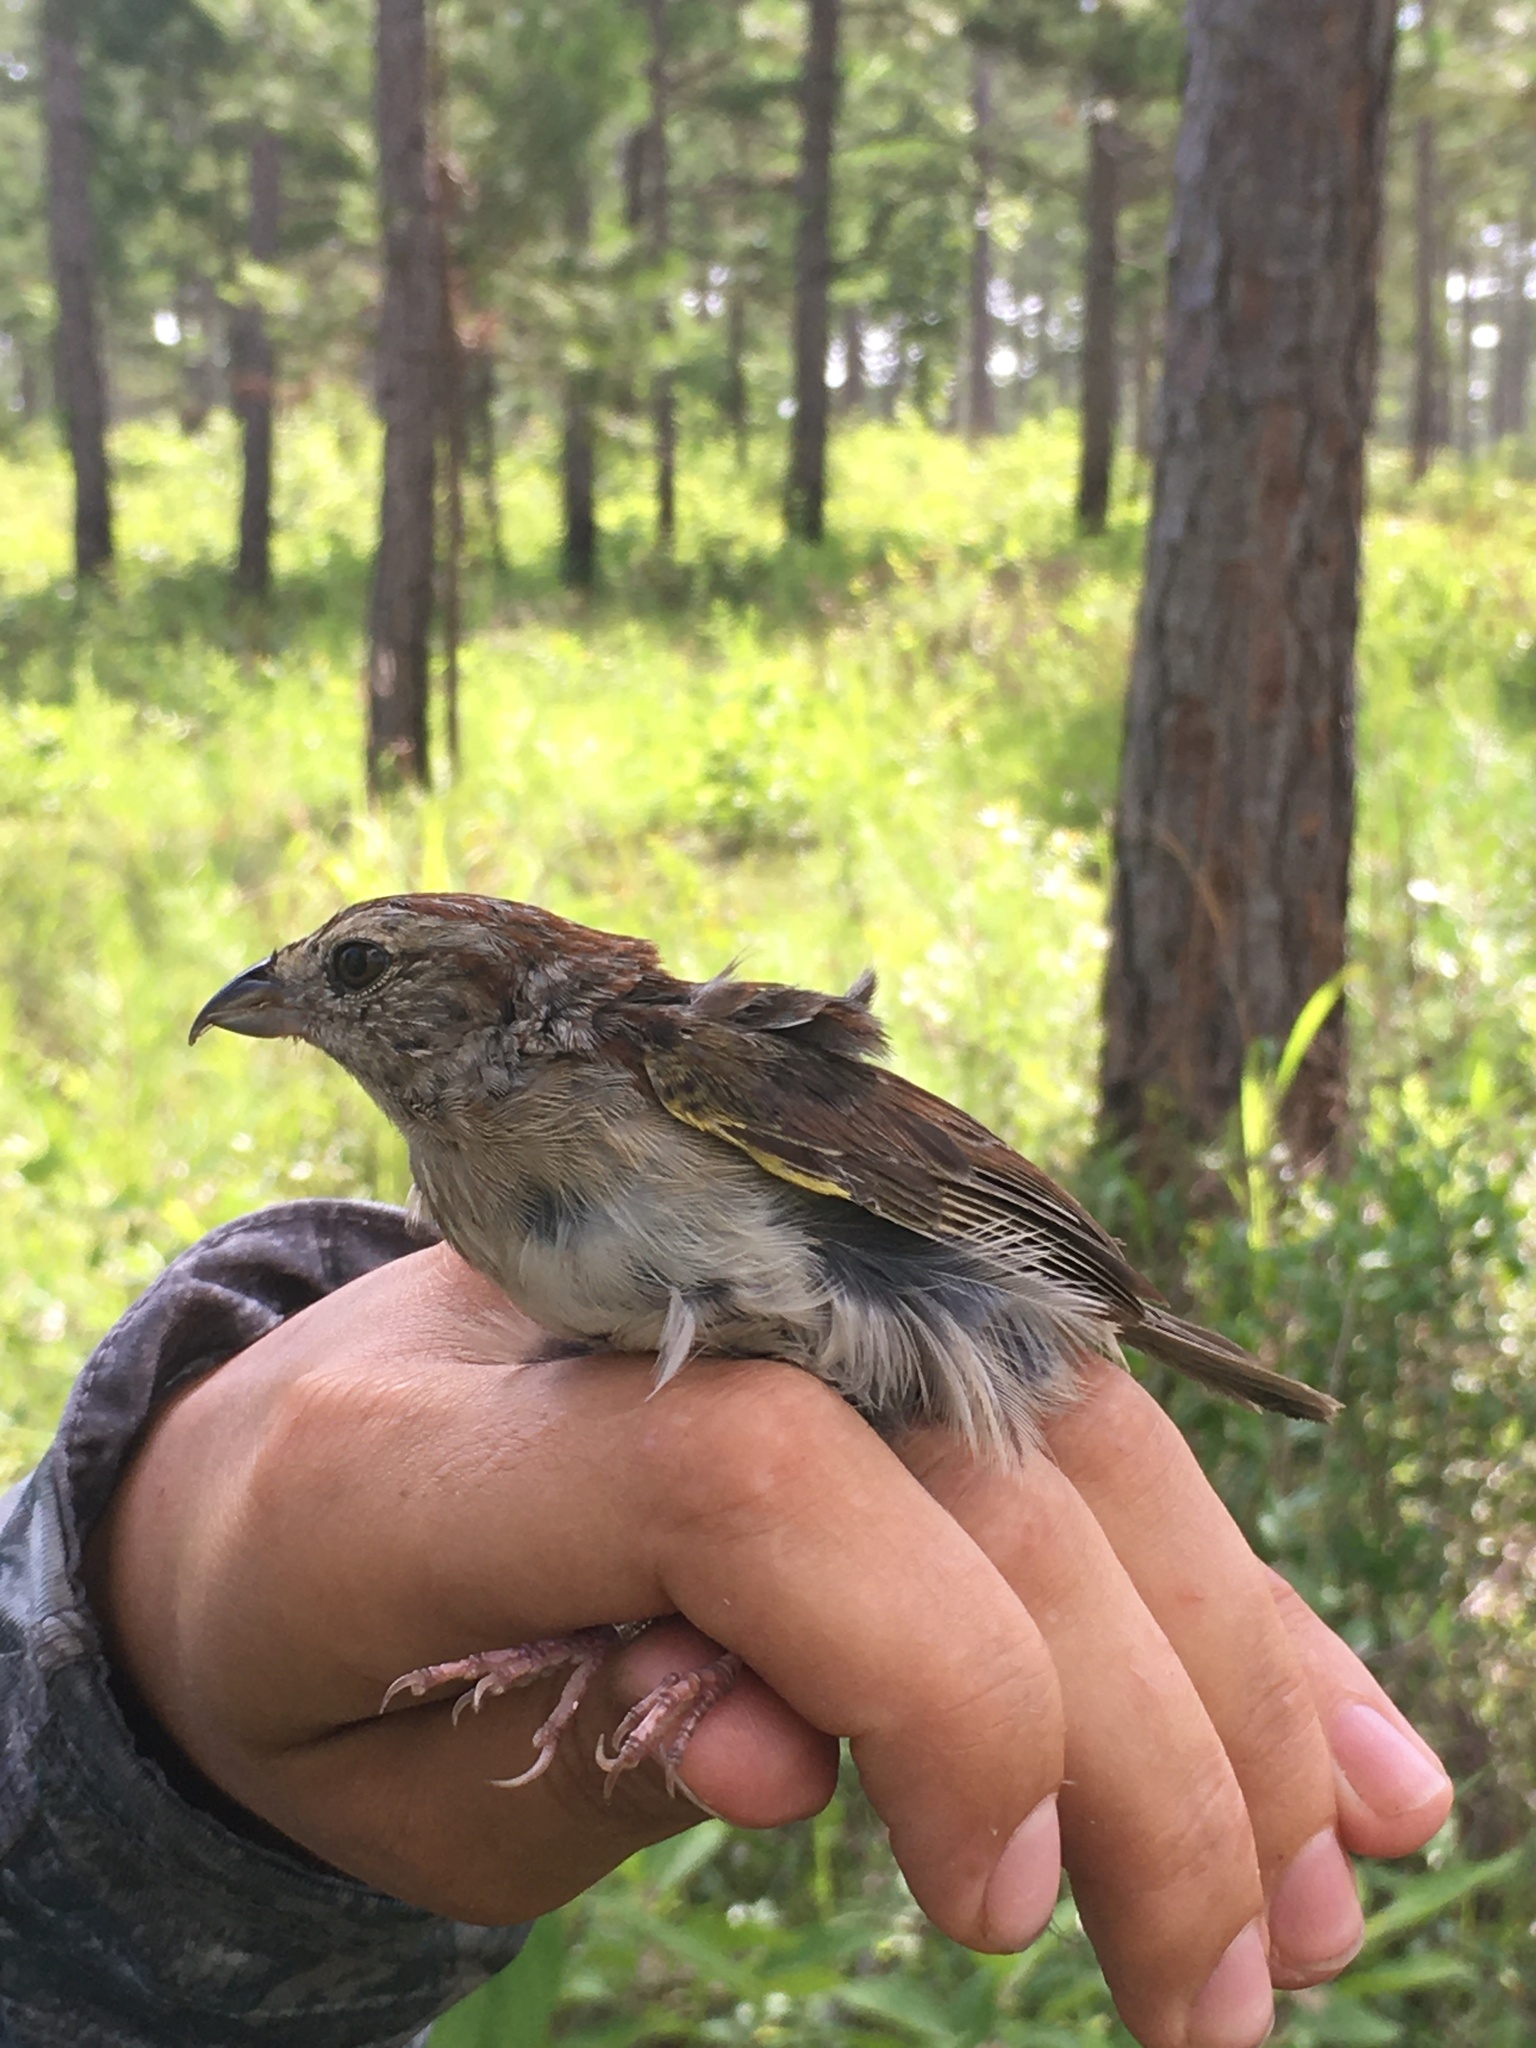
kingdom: Animalia
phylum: Chordata
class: Aves
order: Passeriformes
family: Passerellidae
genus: Peucaea
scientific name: Peucaea aestivalis
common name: Bachman's sparrow
